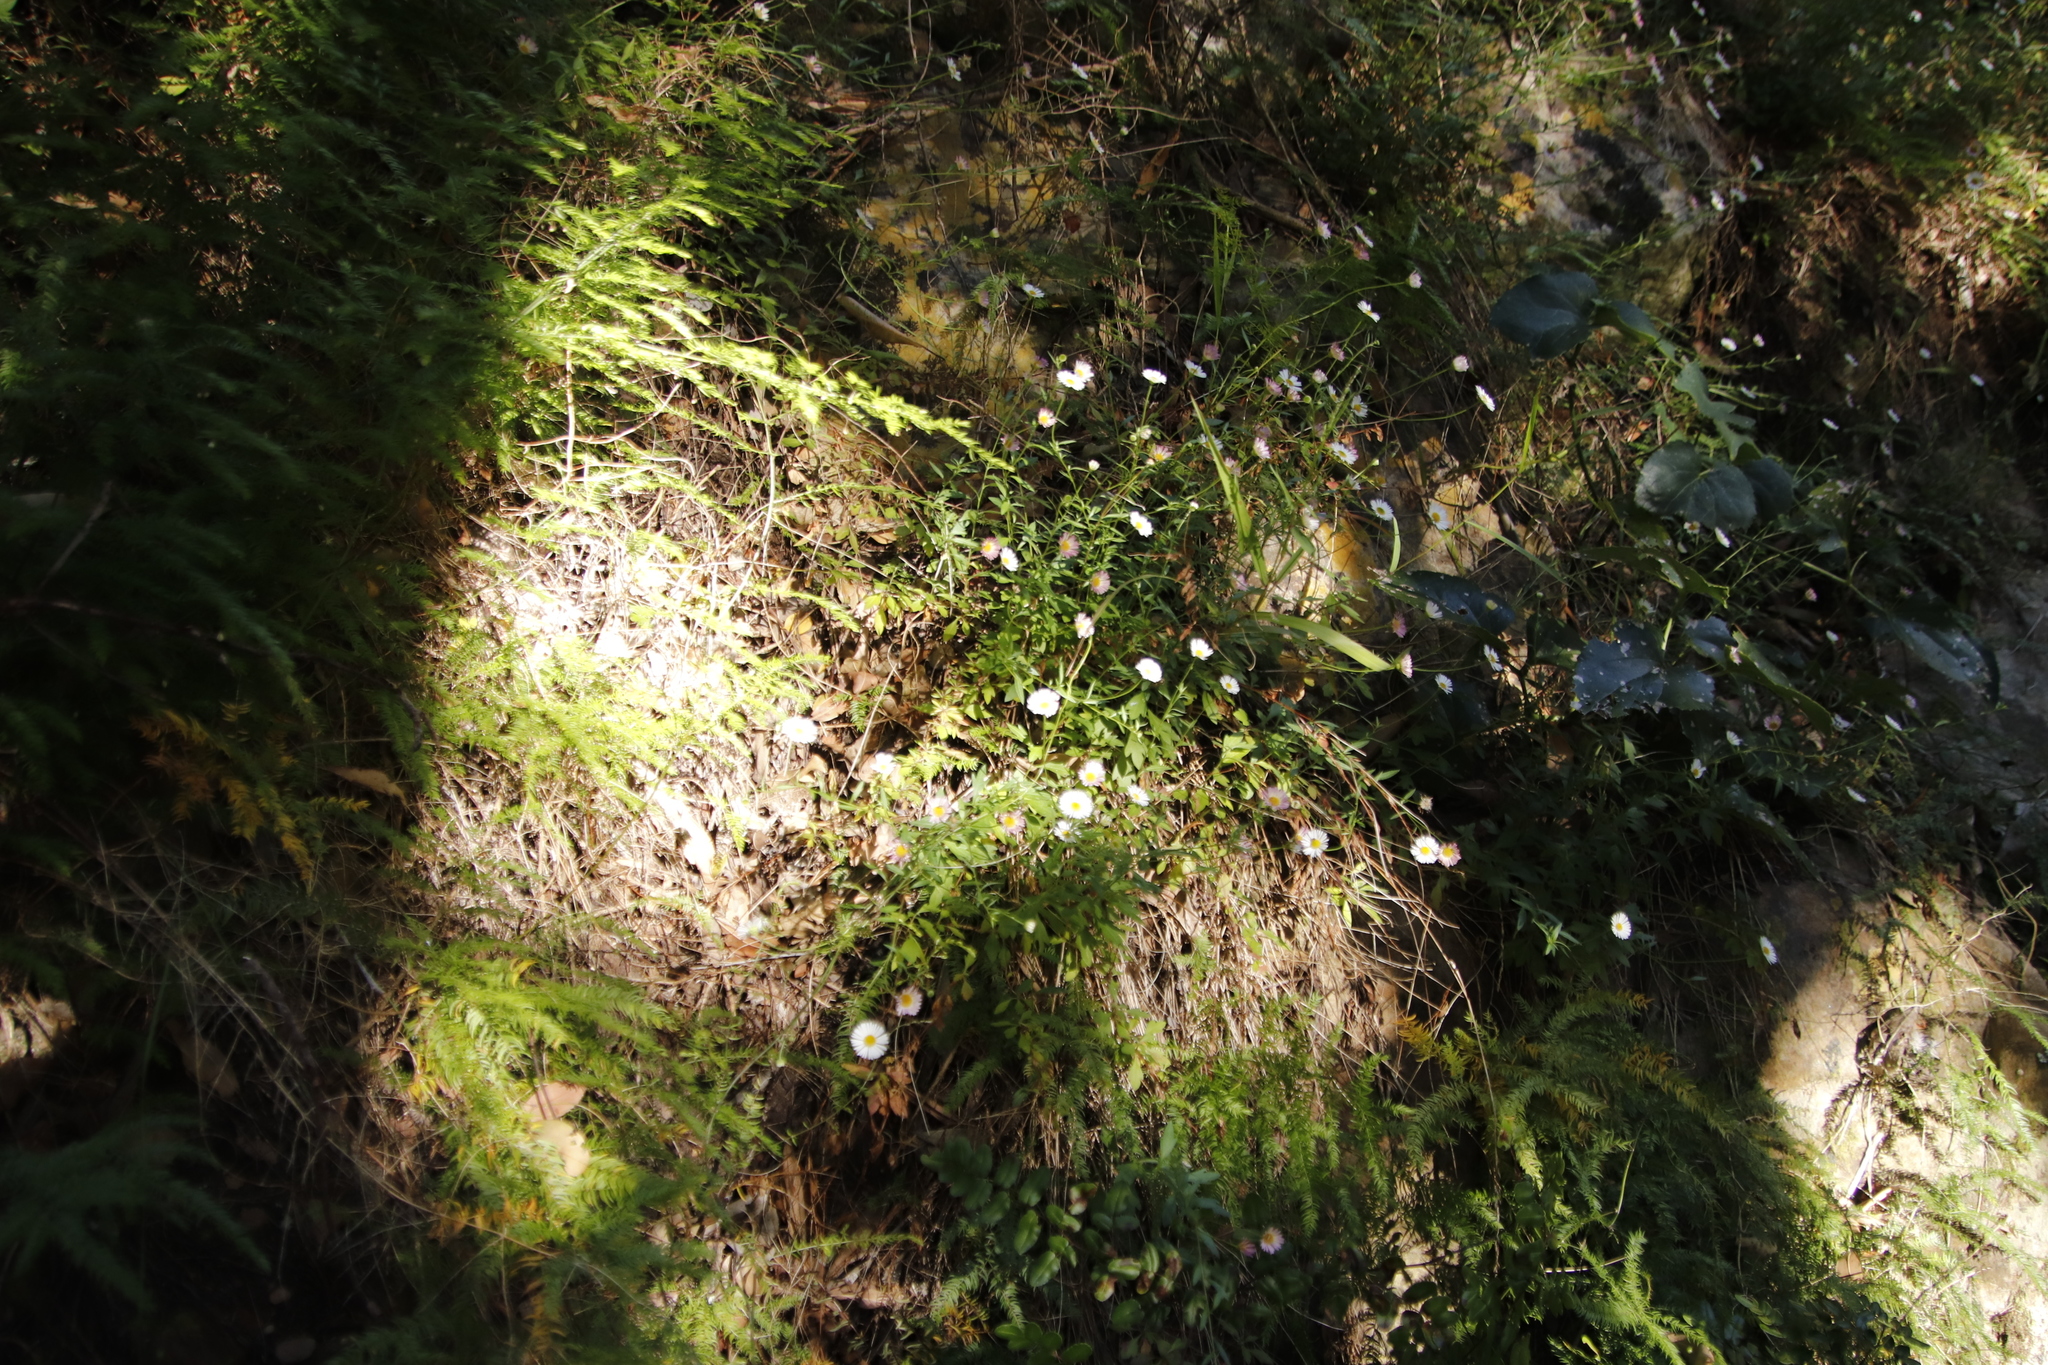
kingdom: Plantae
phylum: Tracheophyta
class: Magnoliopsida
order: Asterales
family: Asteraceae
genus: Erigeron
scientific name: Erigeron karvinskianus
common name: Mexican fleabane
